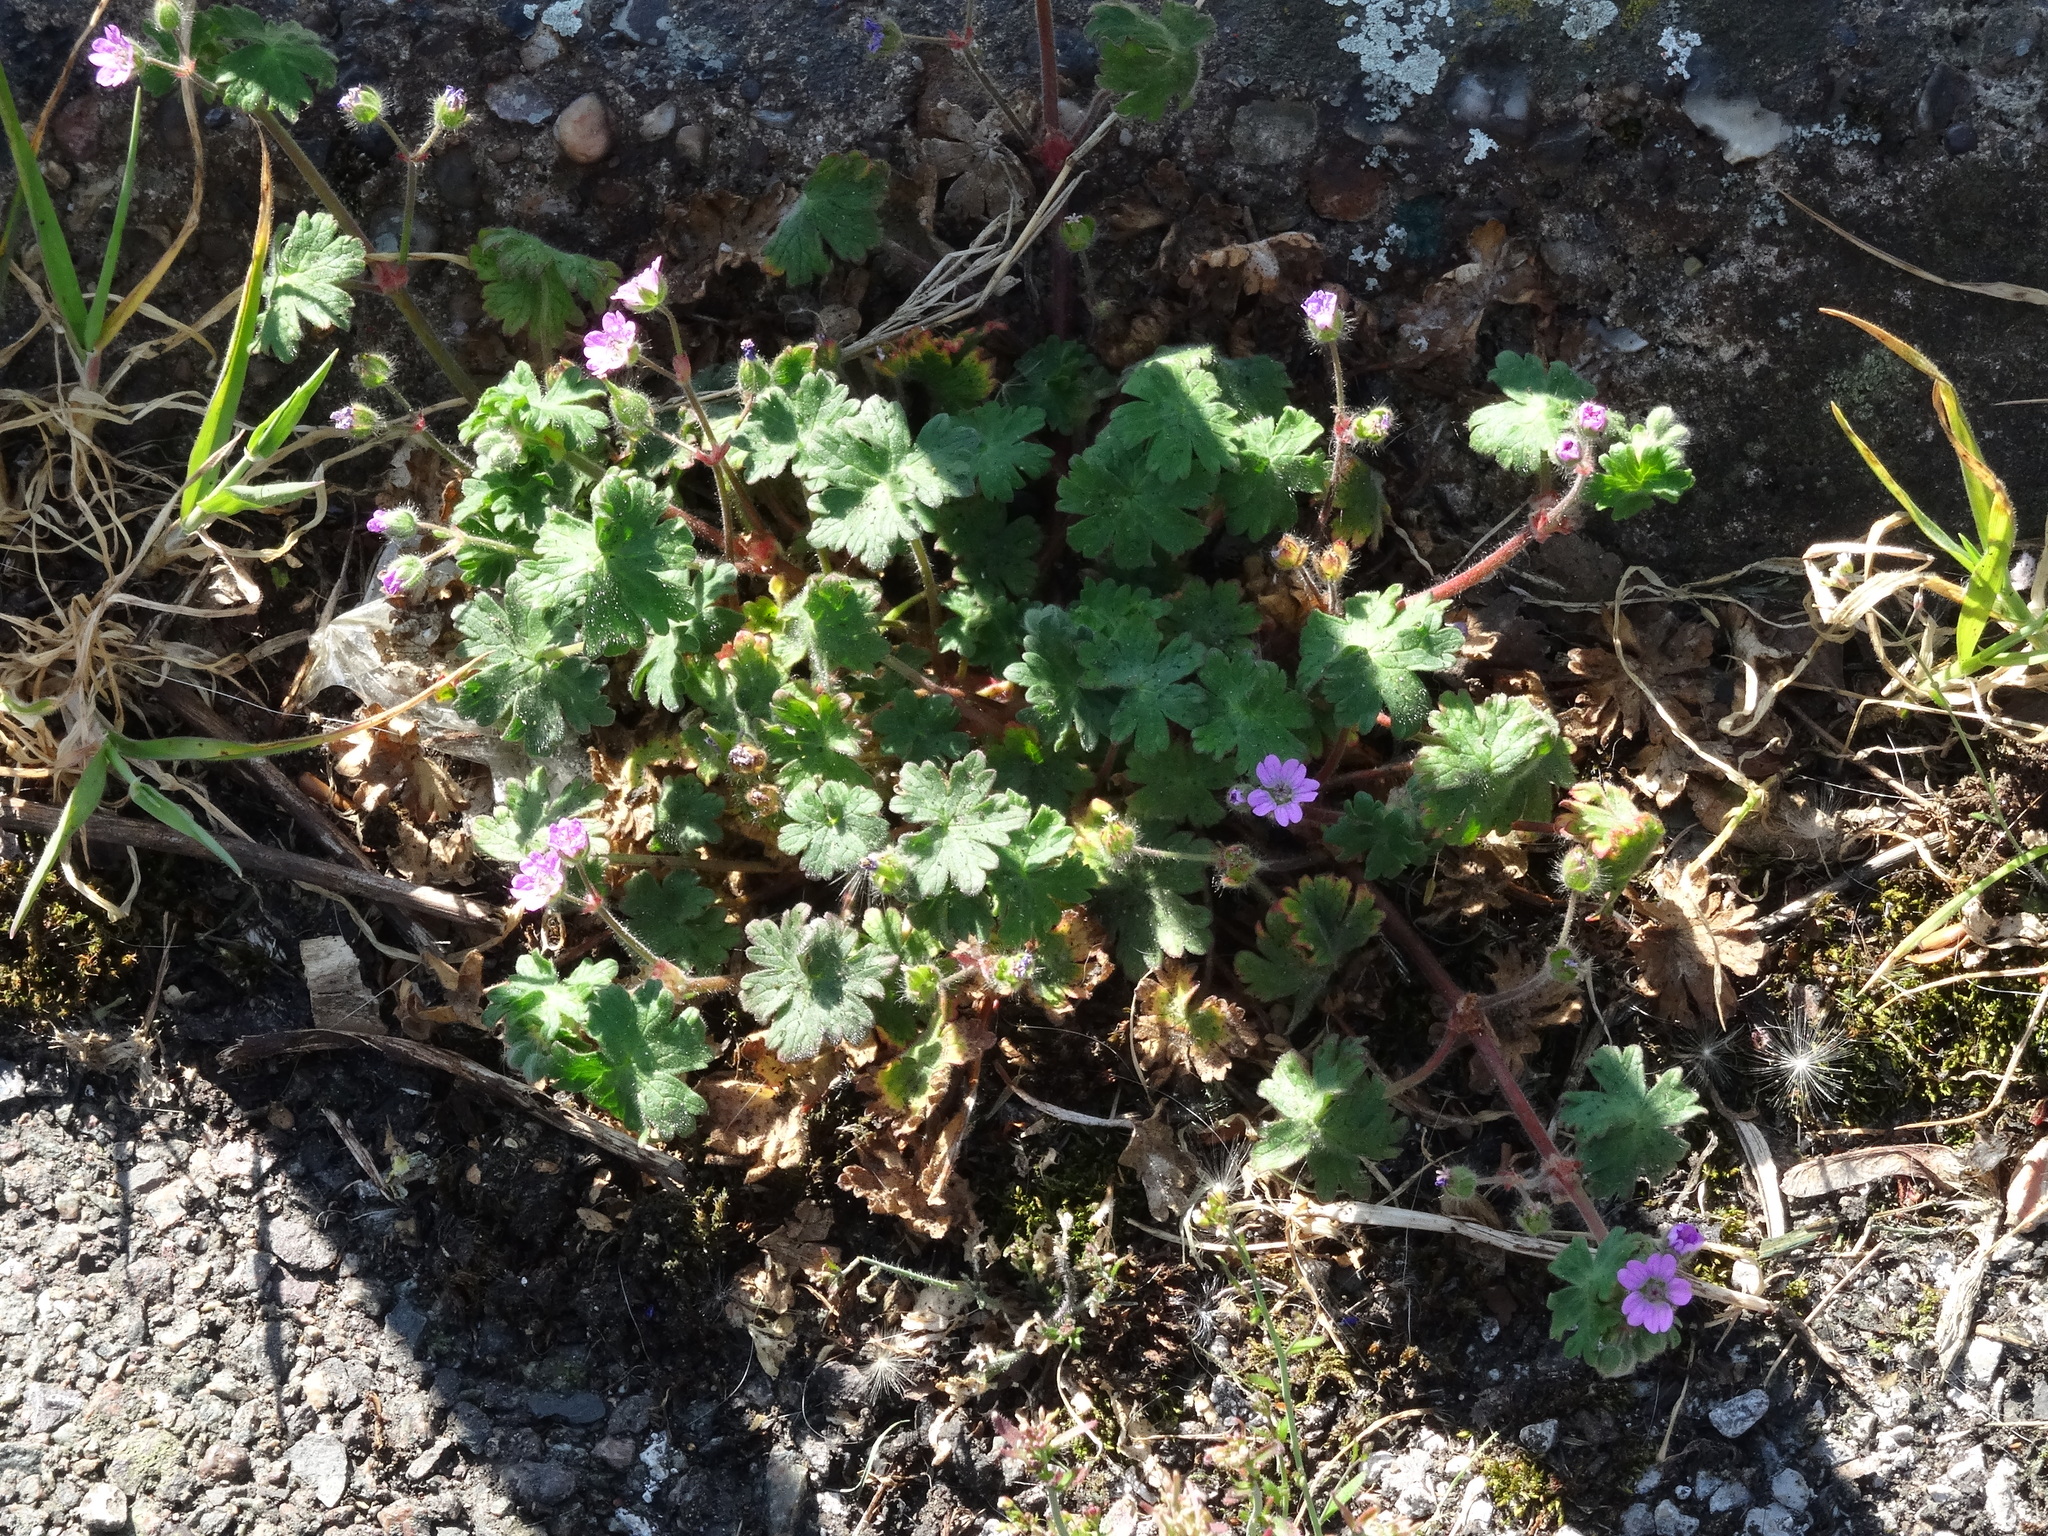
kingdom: Plantae
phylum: Tracheophyta
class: Magnoliopsida
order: Geraniales
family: Geraniaceae
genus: Geranium
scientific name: Geranium molle
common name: Dove's-foot crane's-bill
